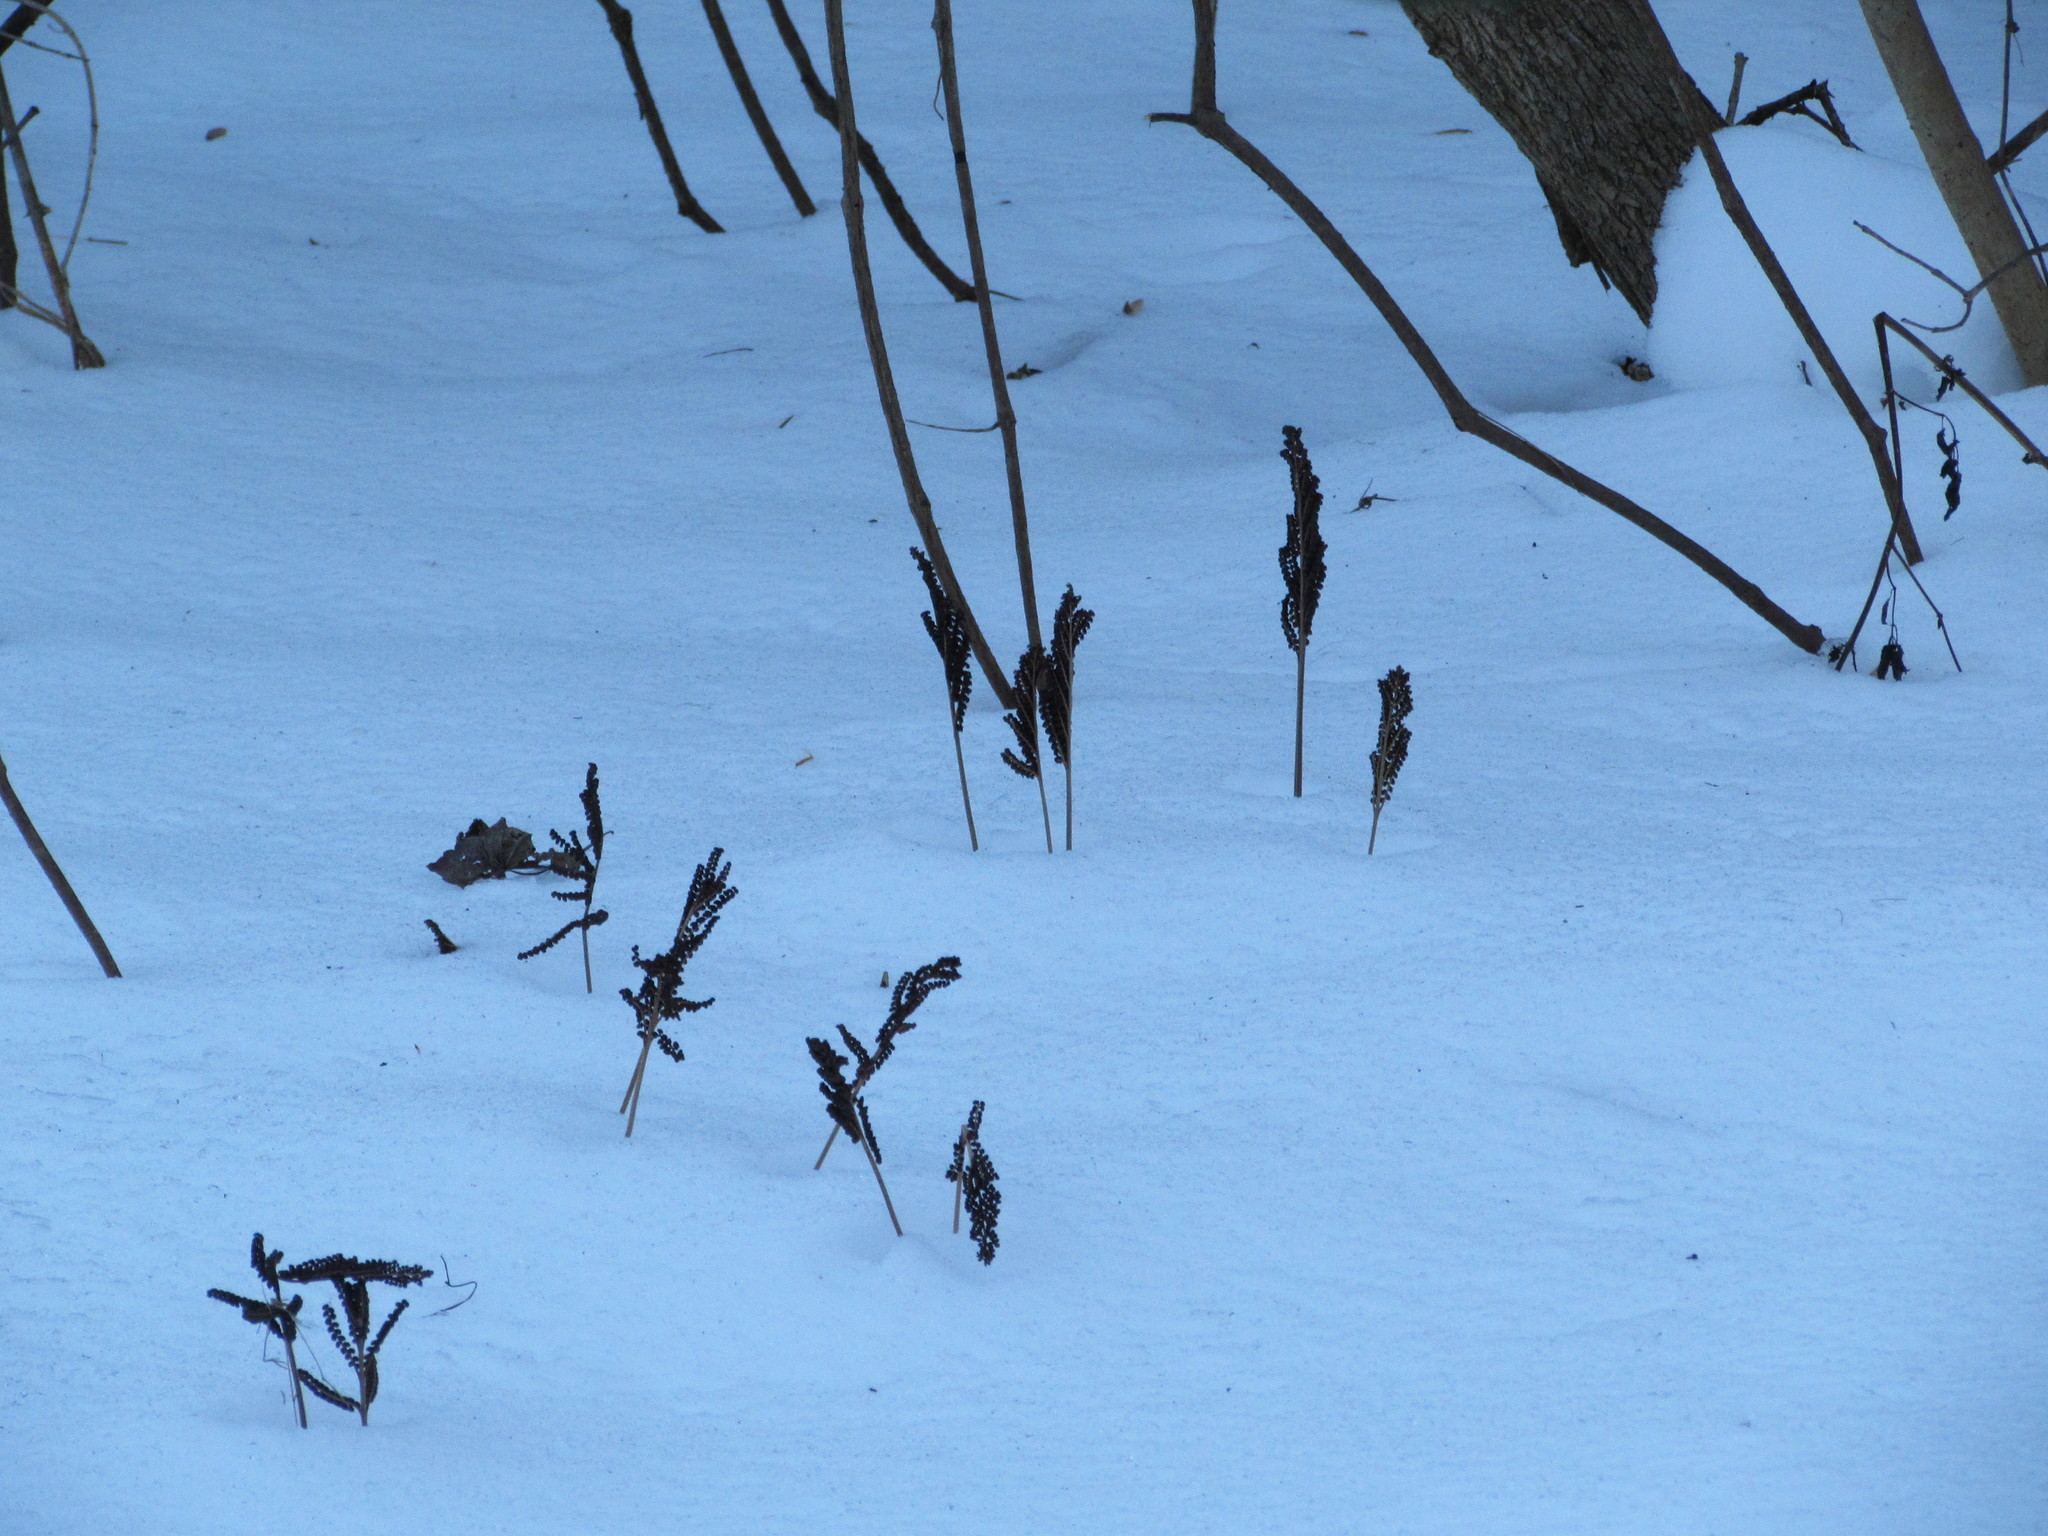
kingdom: Plantae
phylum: Tracheophyta
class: Polypodiopsida
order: Polypodiales
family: Onocleaceae
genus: Onoclea
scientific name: Onoclea sensibilis
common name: Sensitive fern
